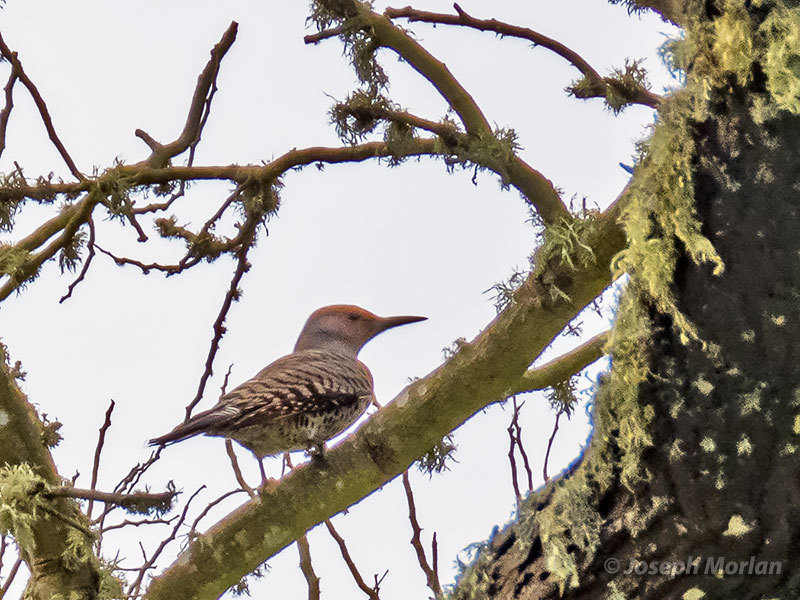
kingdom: Animalia
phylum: Chordata
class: Aves
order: Piciformes
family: Picidae
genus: Colaptes
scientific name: Colaptes auratus
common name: Northern flicker
